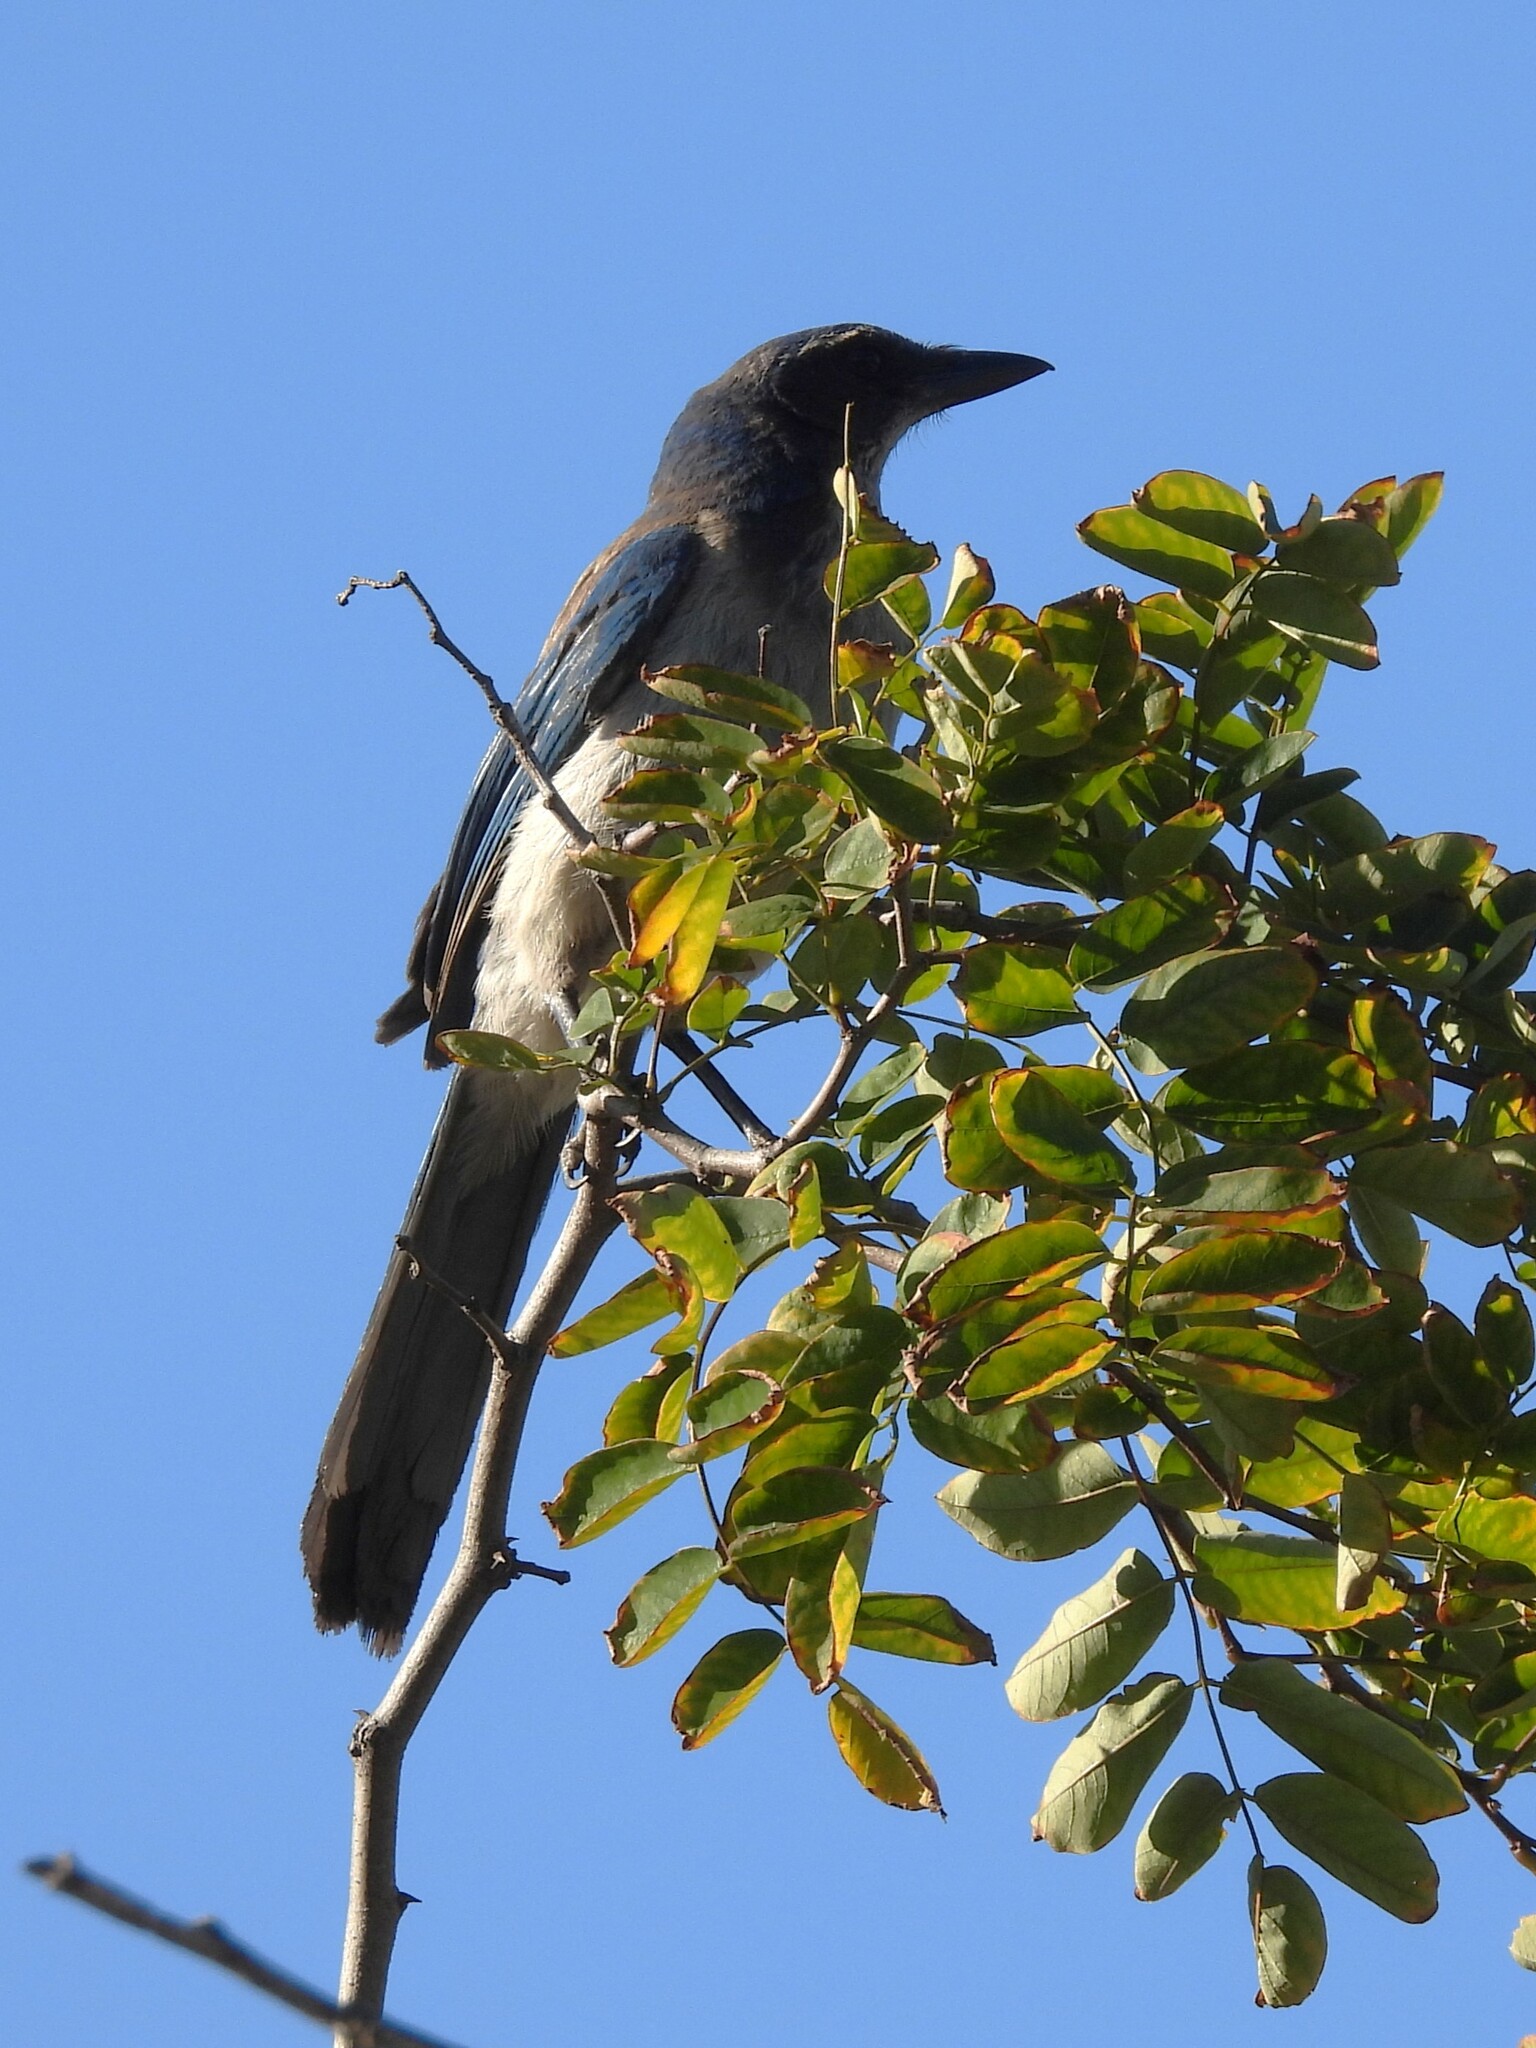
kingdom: Animalia
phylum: Chordata
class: Aves
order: Passeriformes
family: Corvidae
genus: Aphelocoma
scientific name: Aphelocoma californica
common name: California scrub-jay
